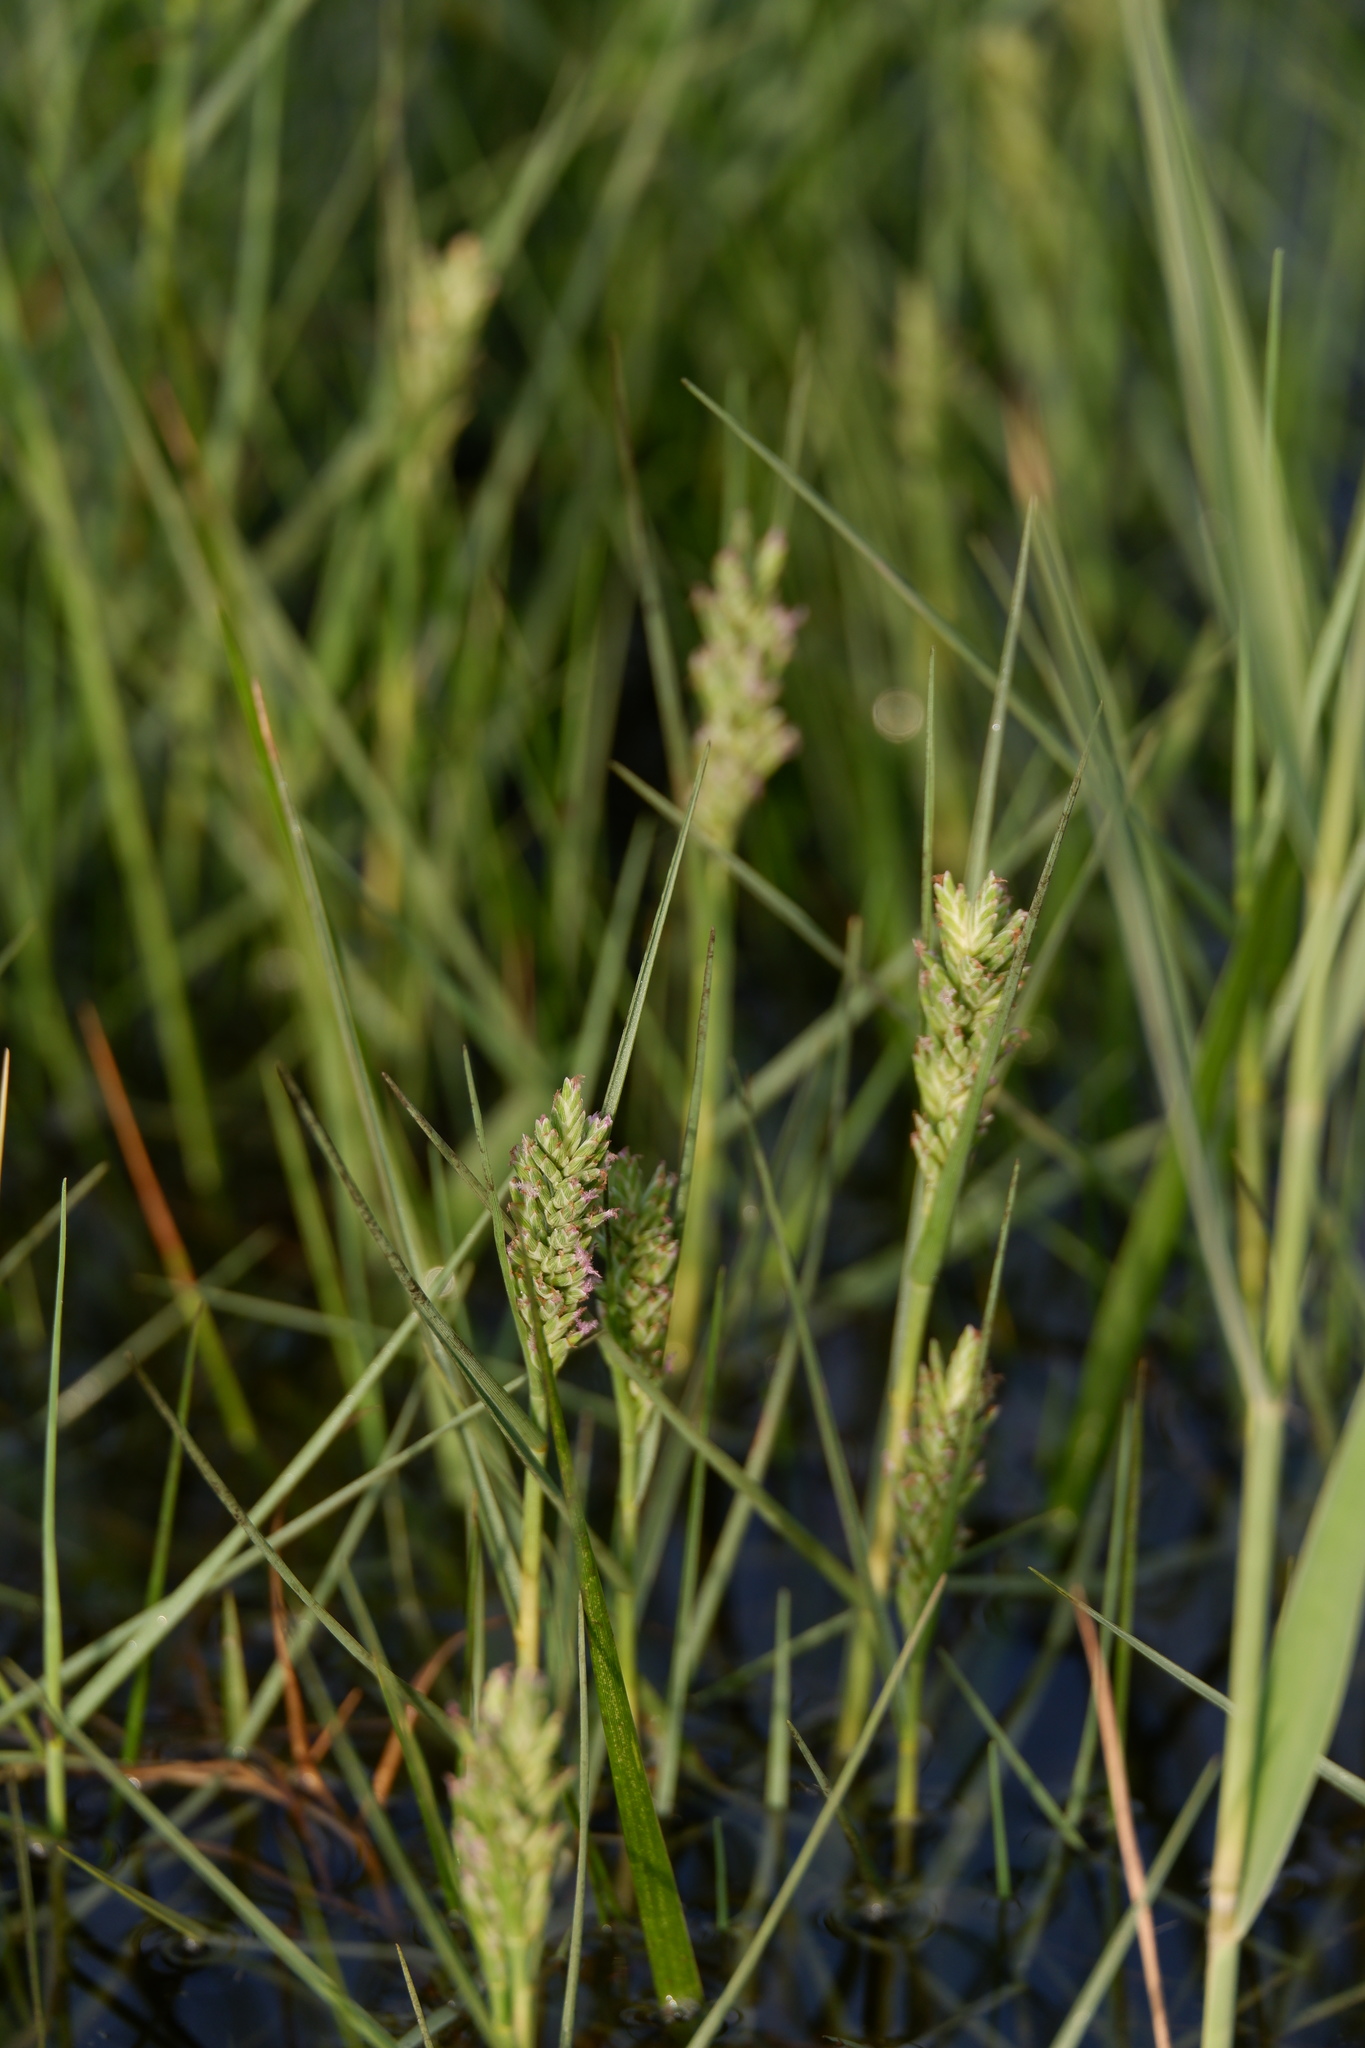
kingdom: Plantae
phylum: Tracheophyta
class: Liliopsida
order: Poales
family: Poaceae
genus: Distichlis
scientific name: Distichlis spicata
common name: Saltgrass
